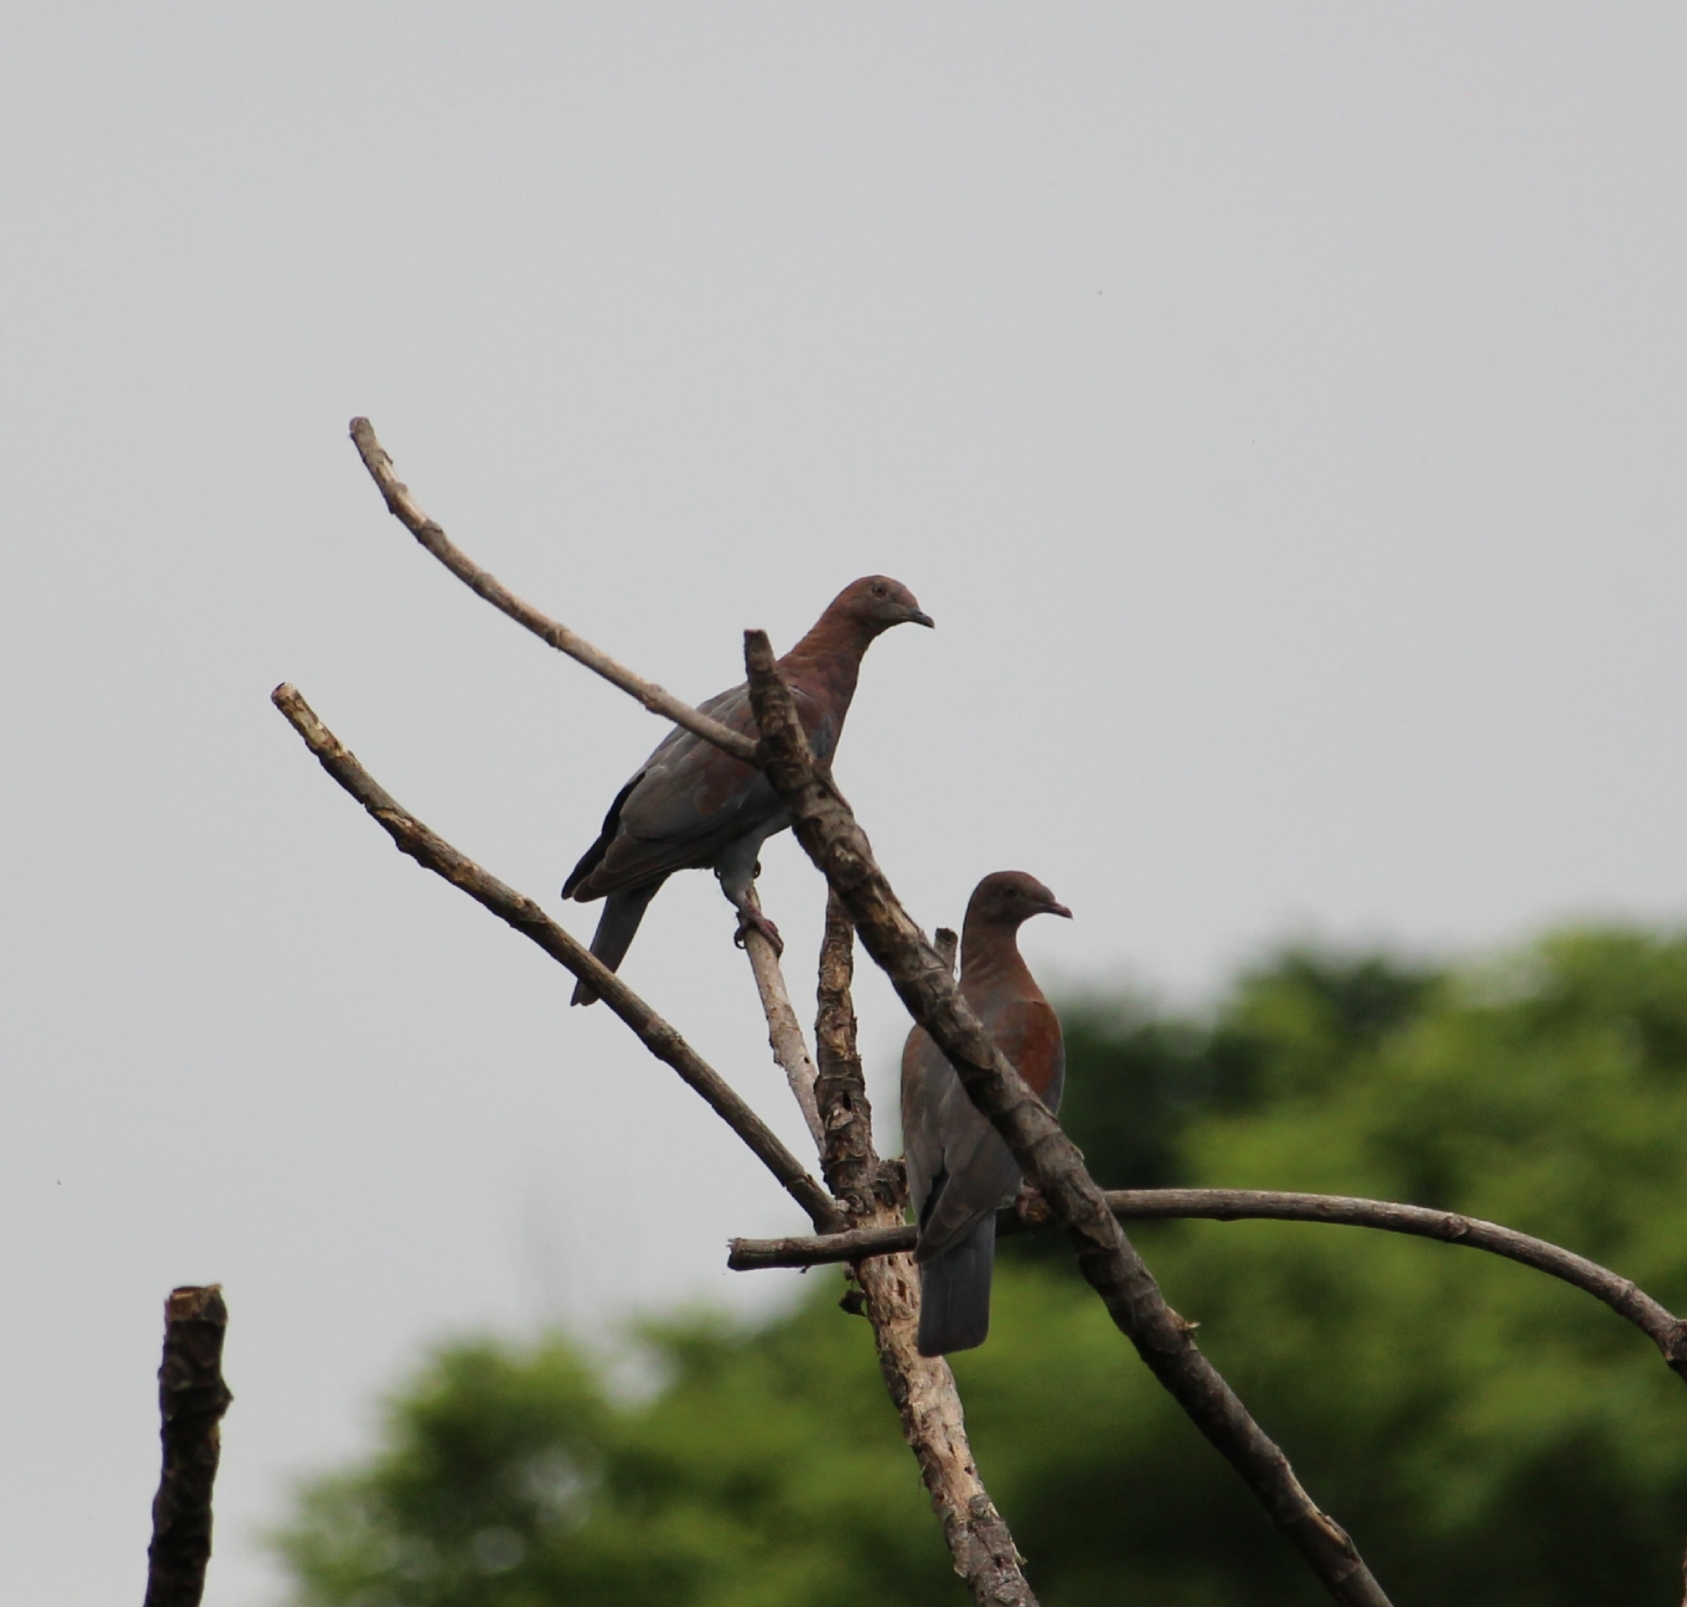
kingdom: Animalia
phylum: Chordata
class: Aves
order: Columbiformes
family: Columbidae
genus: Patagioenas
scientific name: Patagioenas flavirostris
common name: Red-billed pigeon
